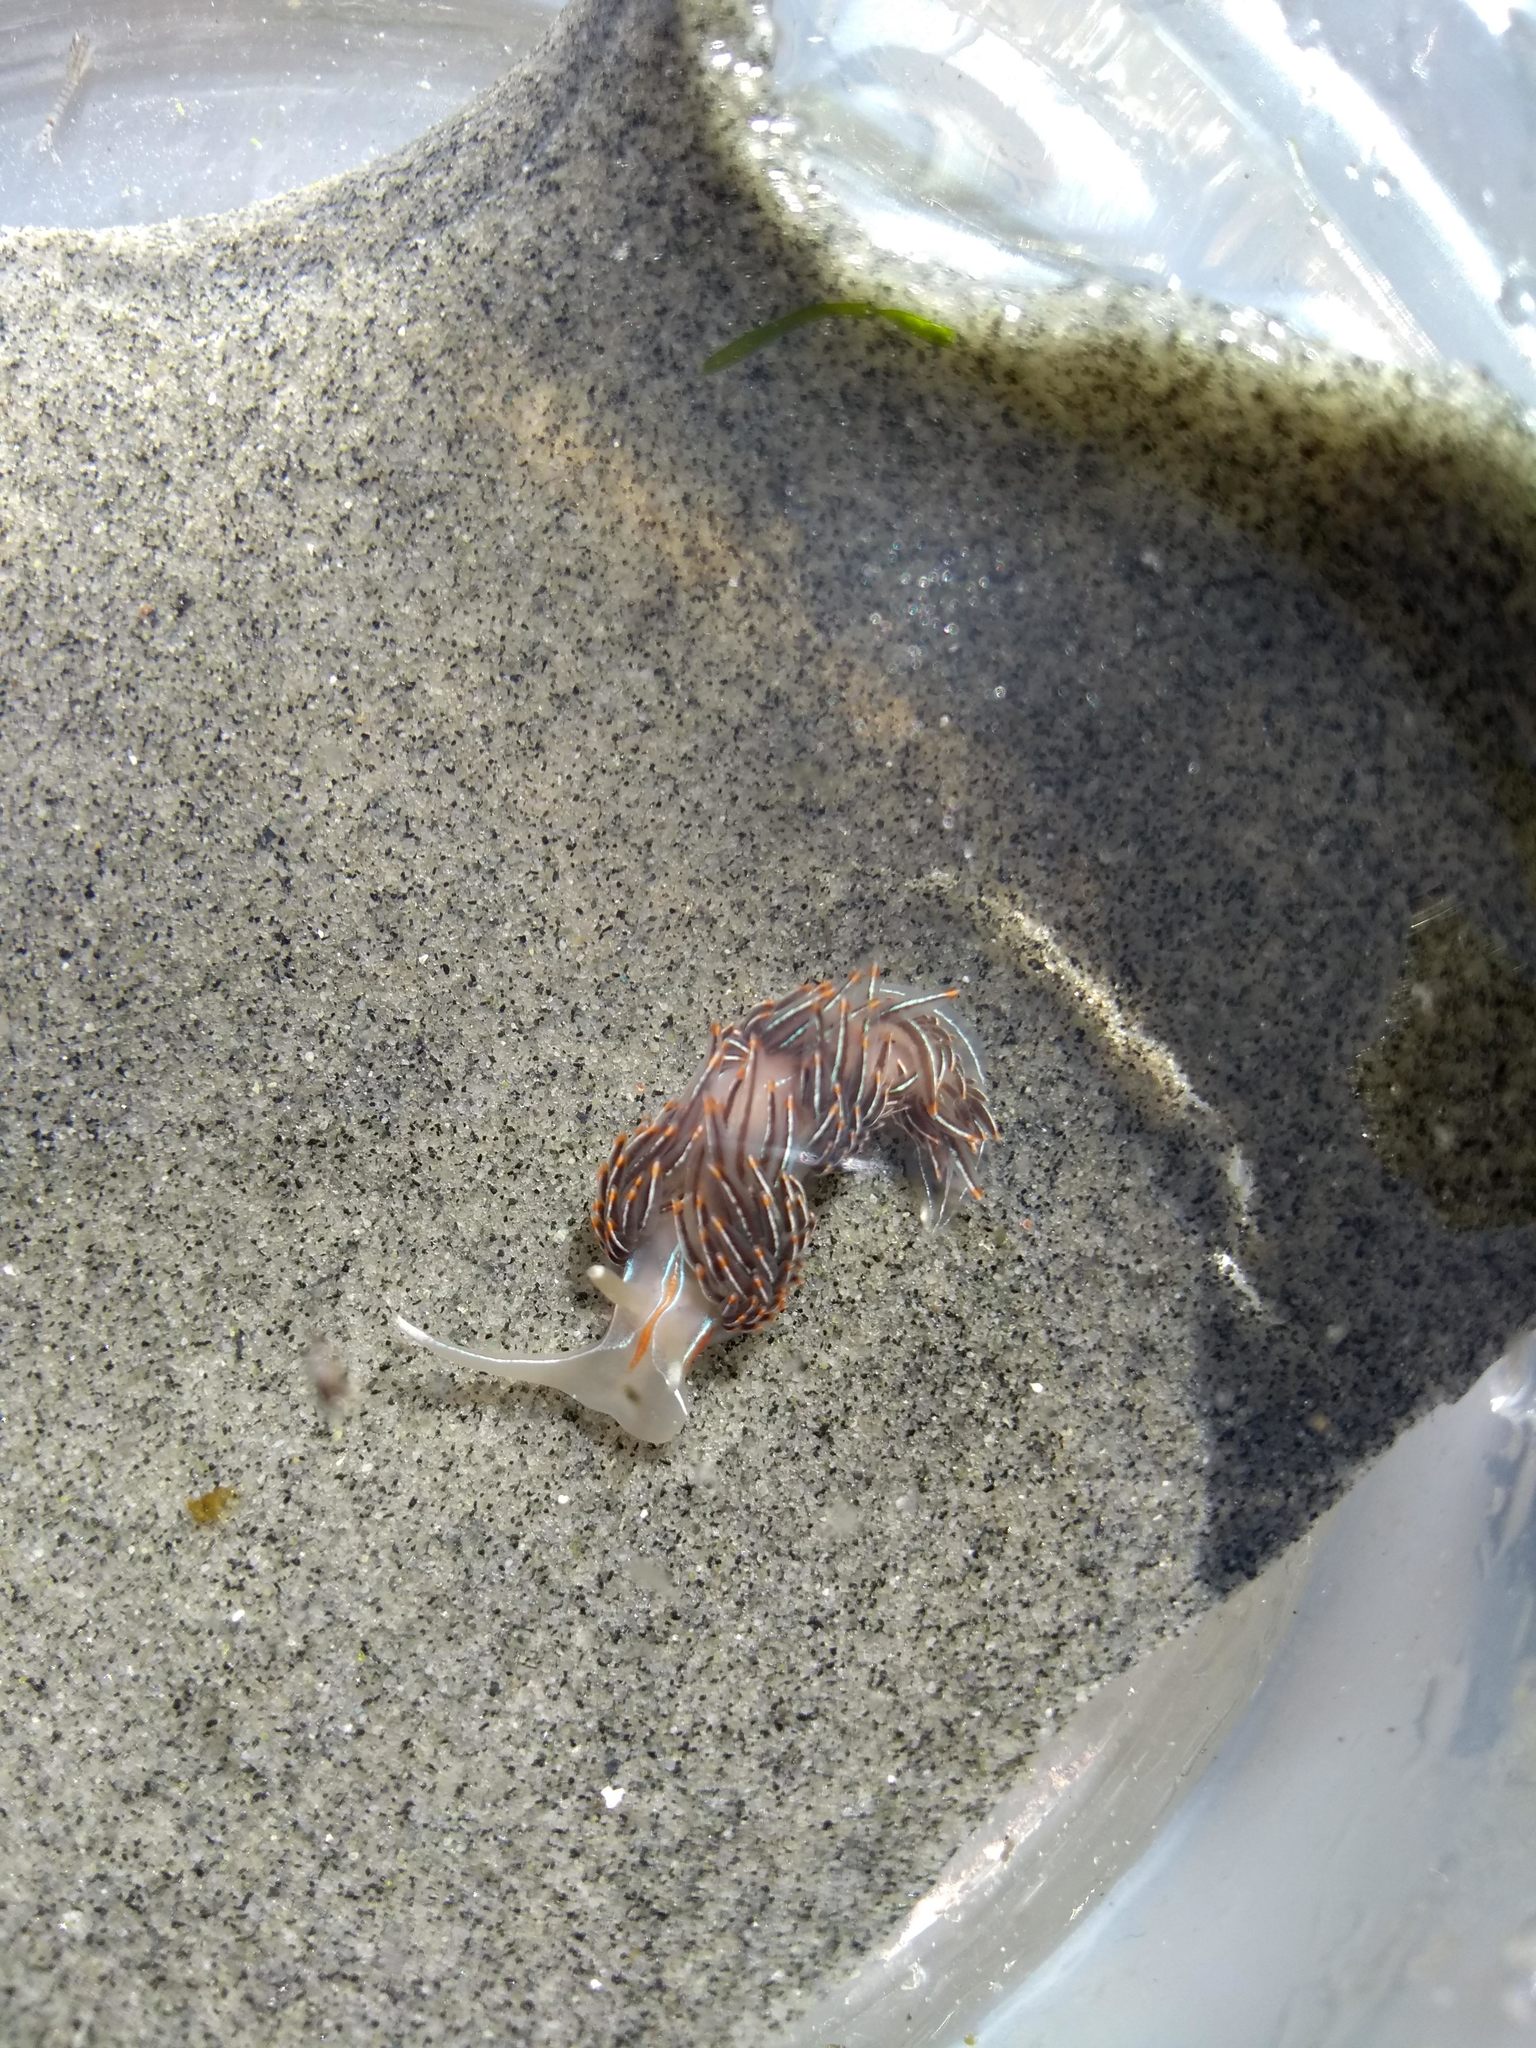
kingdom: Animalia
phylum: Mollusca
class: Gastropoda
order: Nudibranchia
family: Myrrhinidae
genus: Hermissenda
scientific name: Hermissenda crassicornis
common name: Hermissenda
